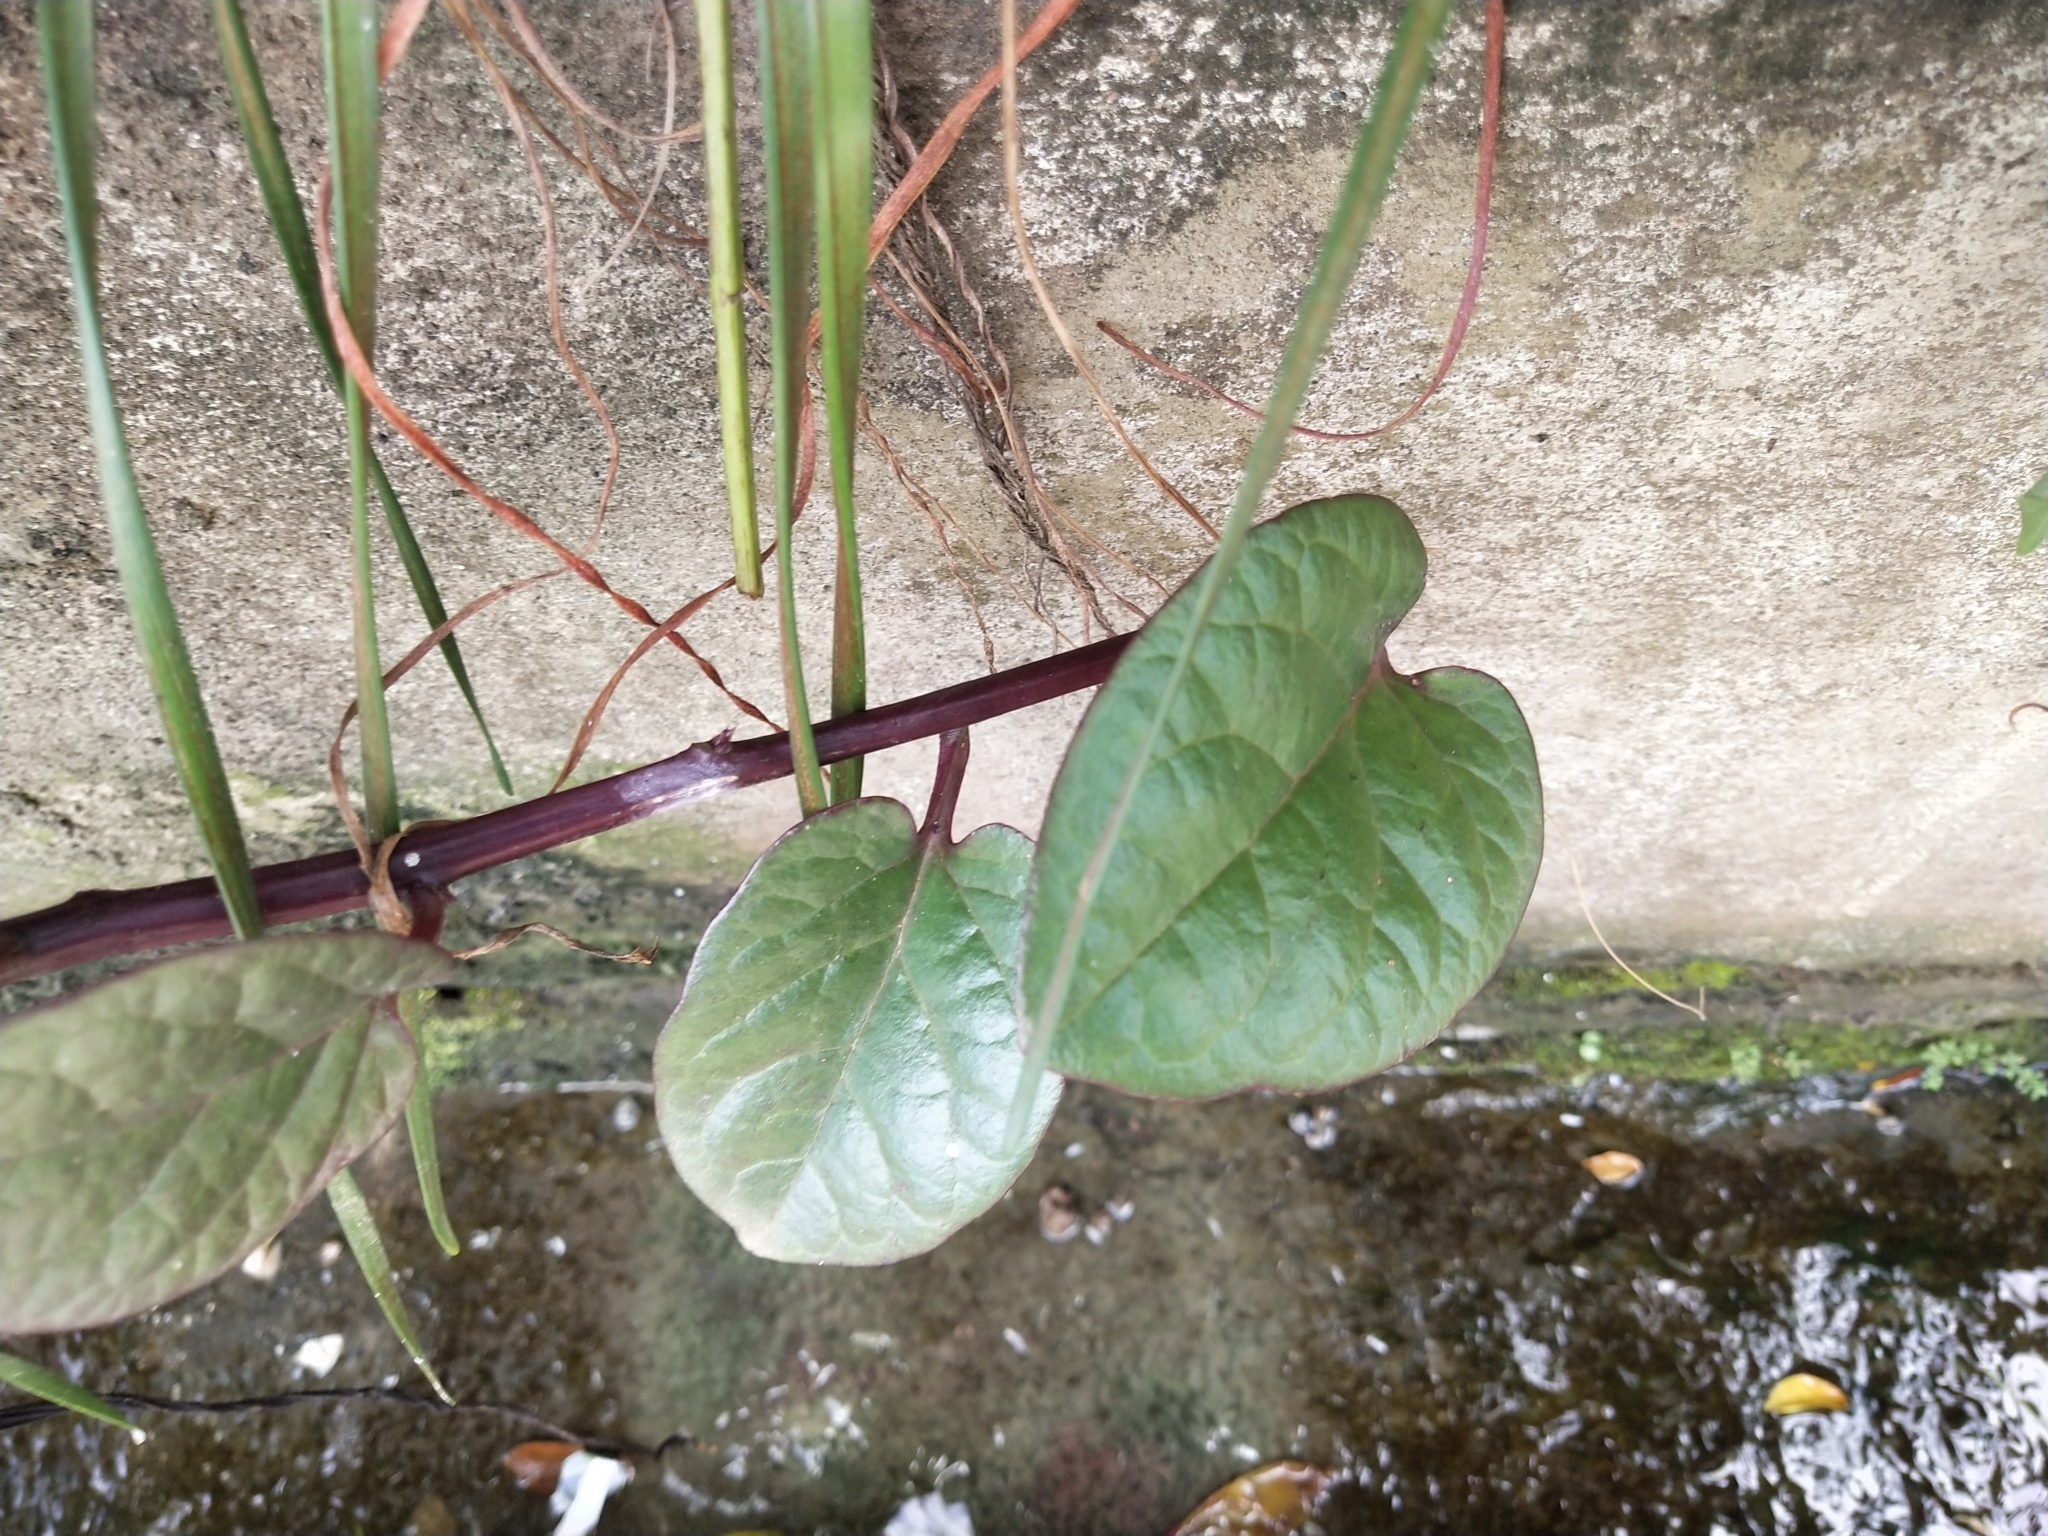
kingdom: Plantae
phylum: Tracheophyta
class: Magnoliopsida
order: Caryophyllales
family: Basellaceae
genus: Basella
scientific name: Basella alba
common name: Indian spinach
